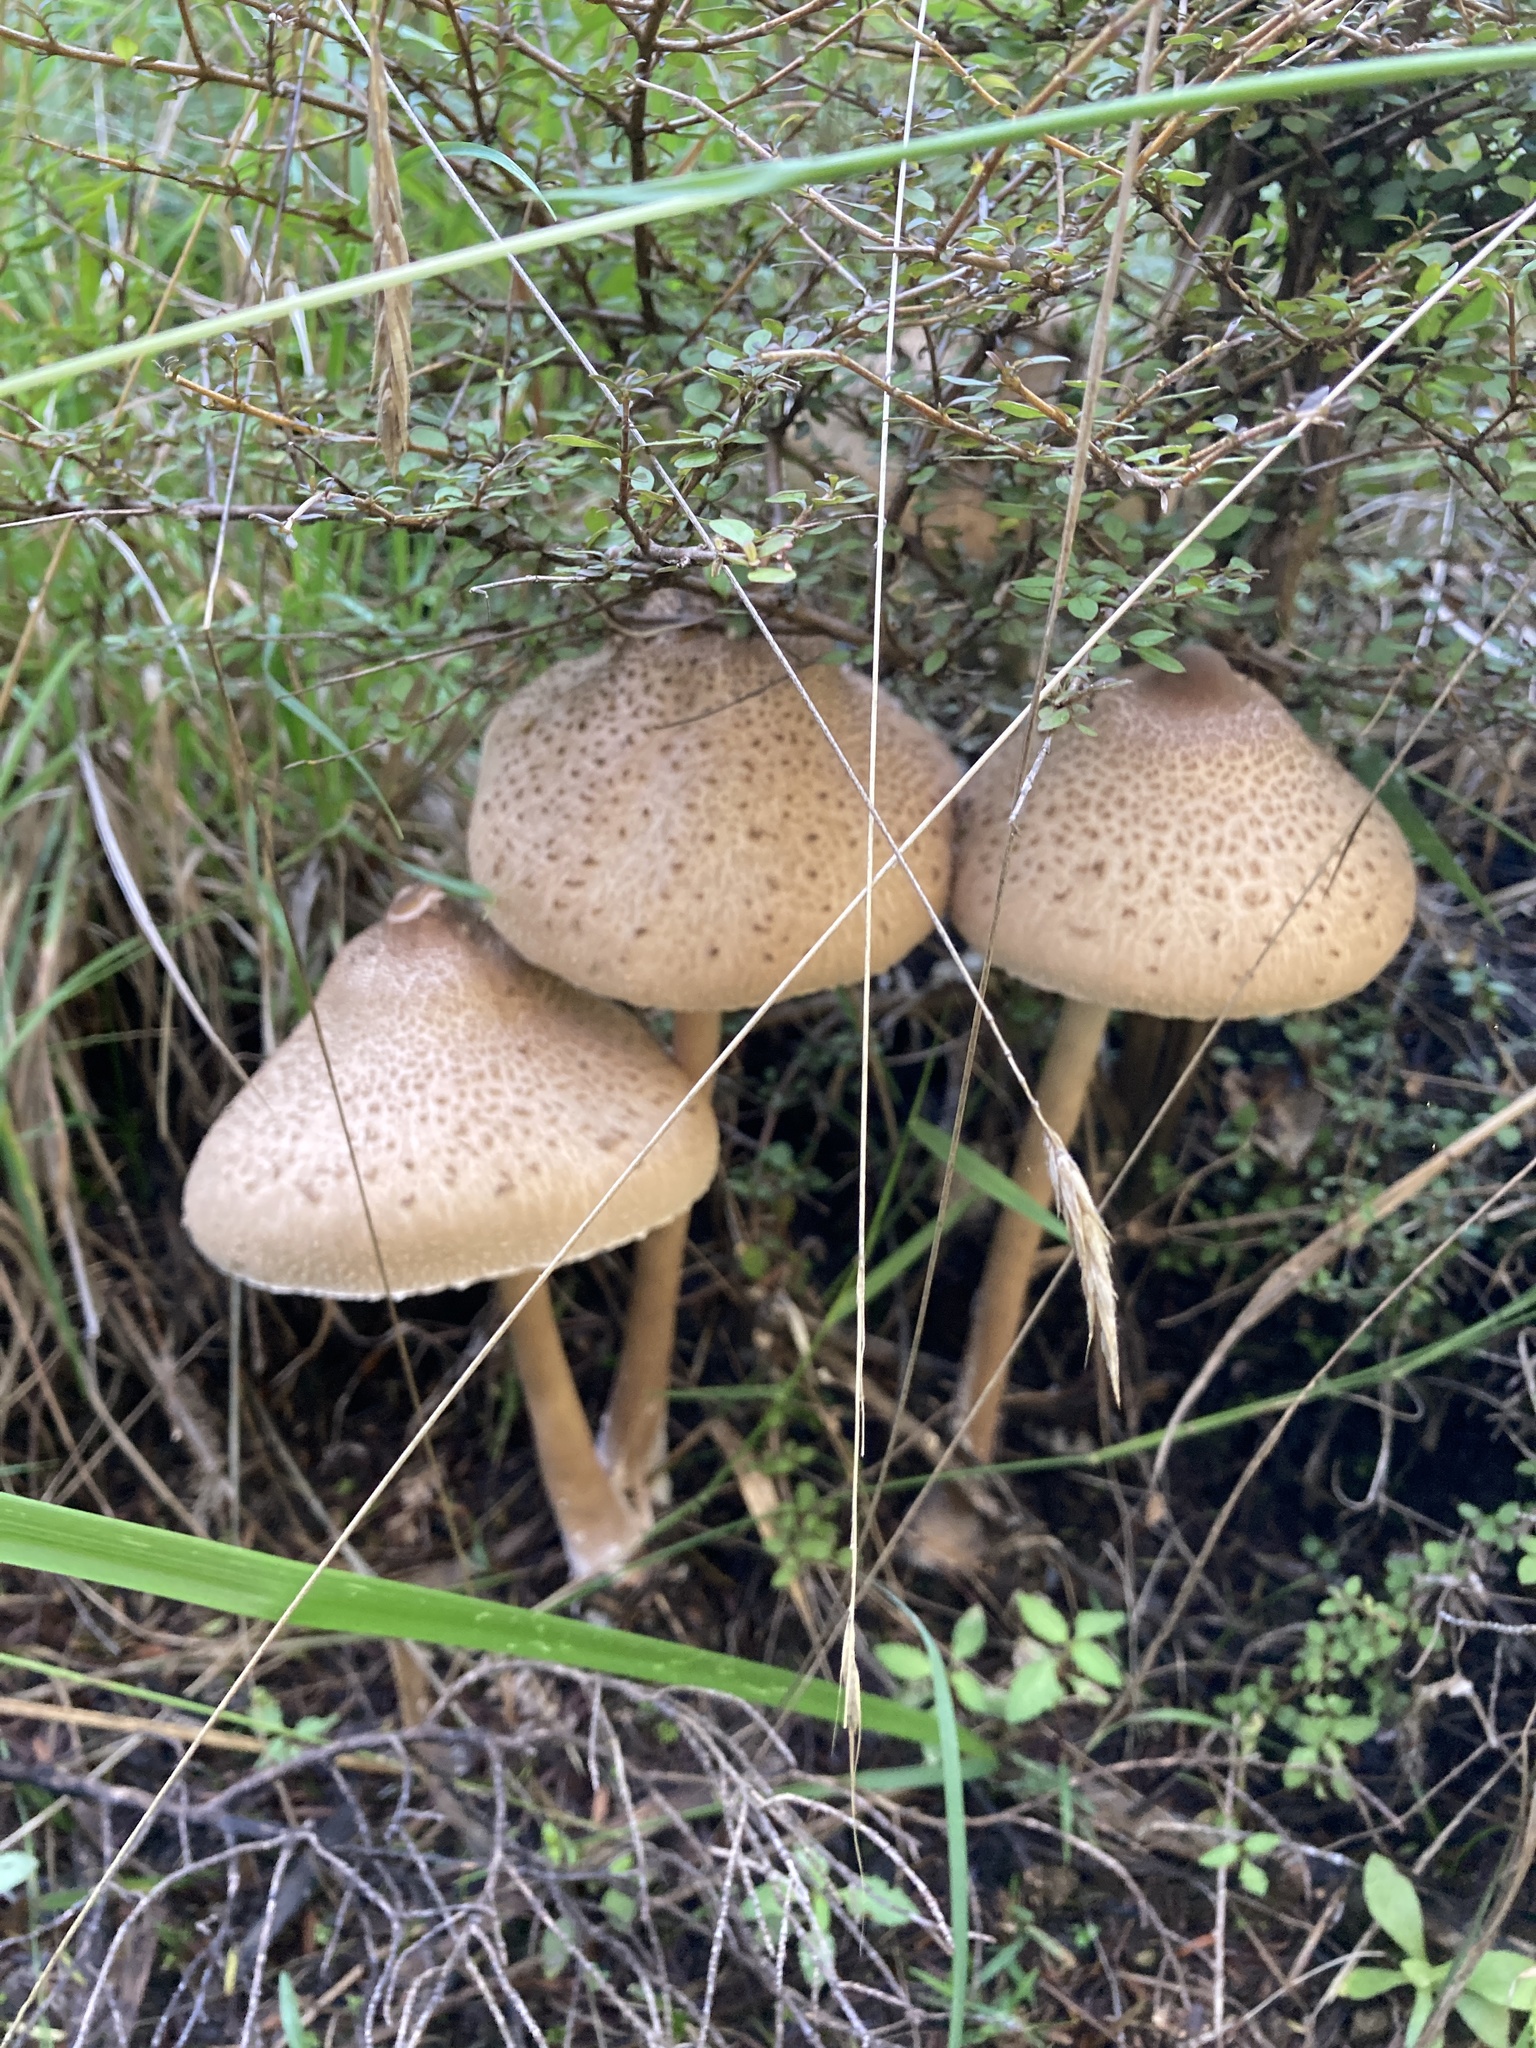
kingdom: Fungi
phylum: Basidiomycota
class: Agaricomycetes
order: Agaricales
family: Agaricaceae
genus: Macrolepiota
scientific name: Macrolepiota clelandii
